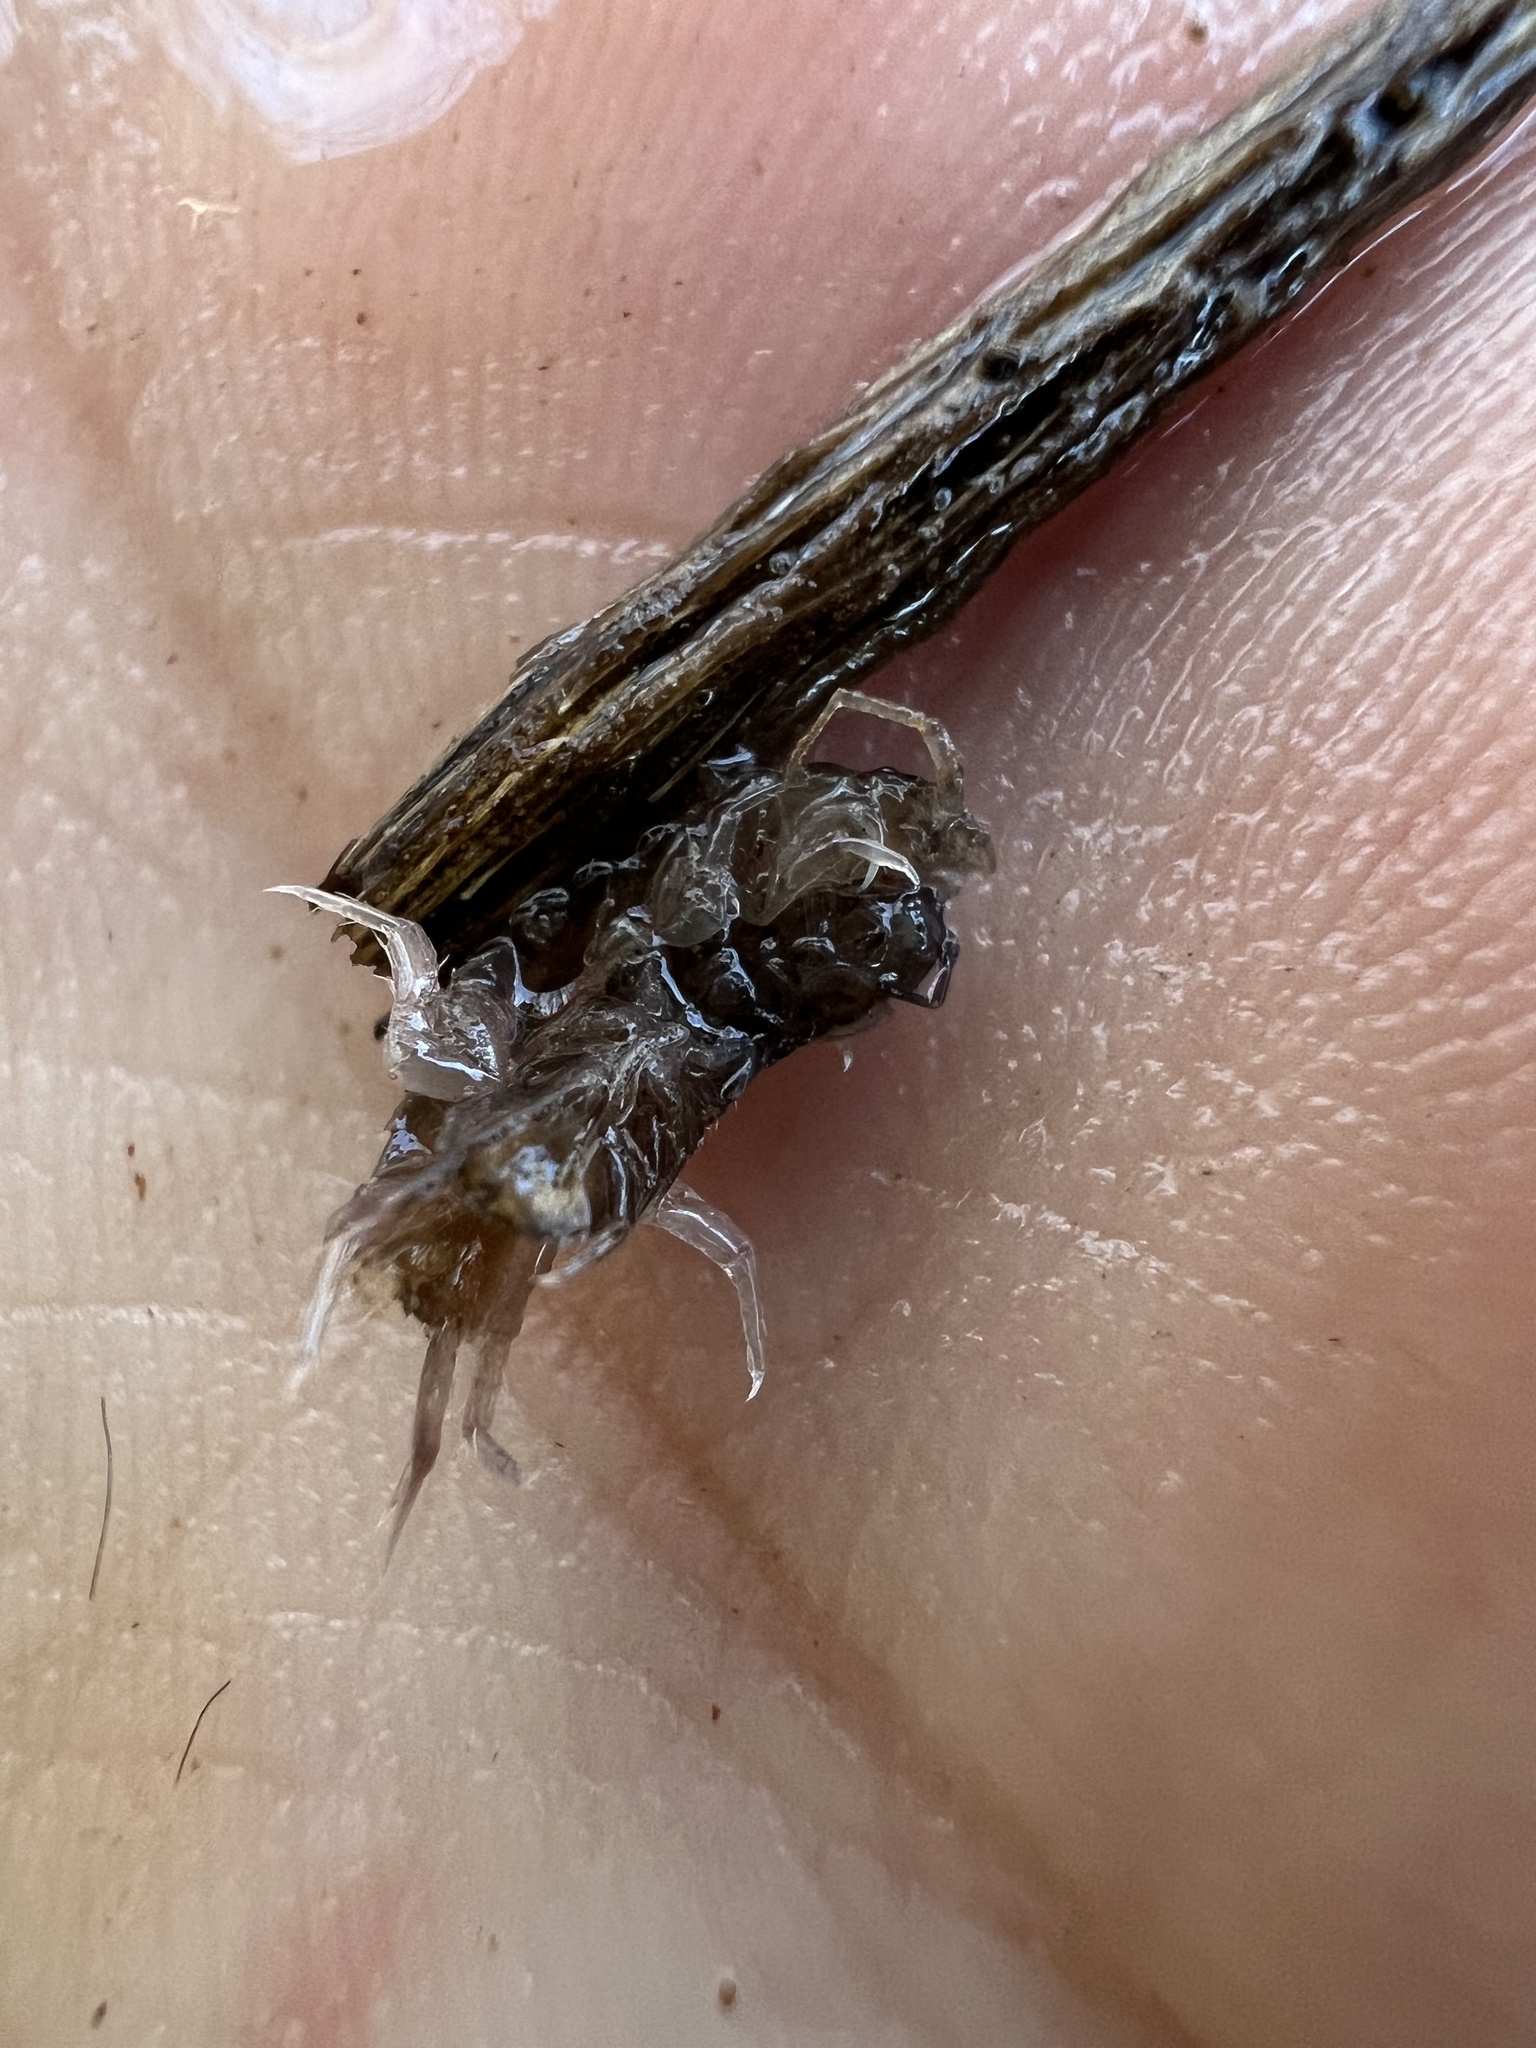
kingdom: Animalia
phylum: Arthropoda
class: Malacostraca
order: Isopoda
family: Asellidae
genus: Caecidotea
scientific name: Caecidotea forbesi
